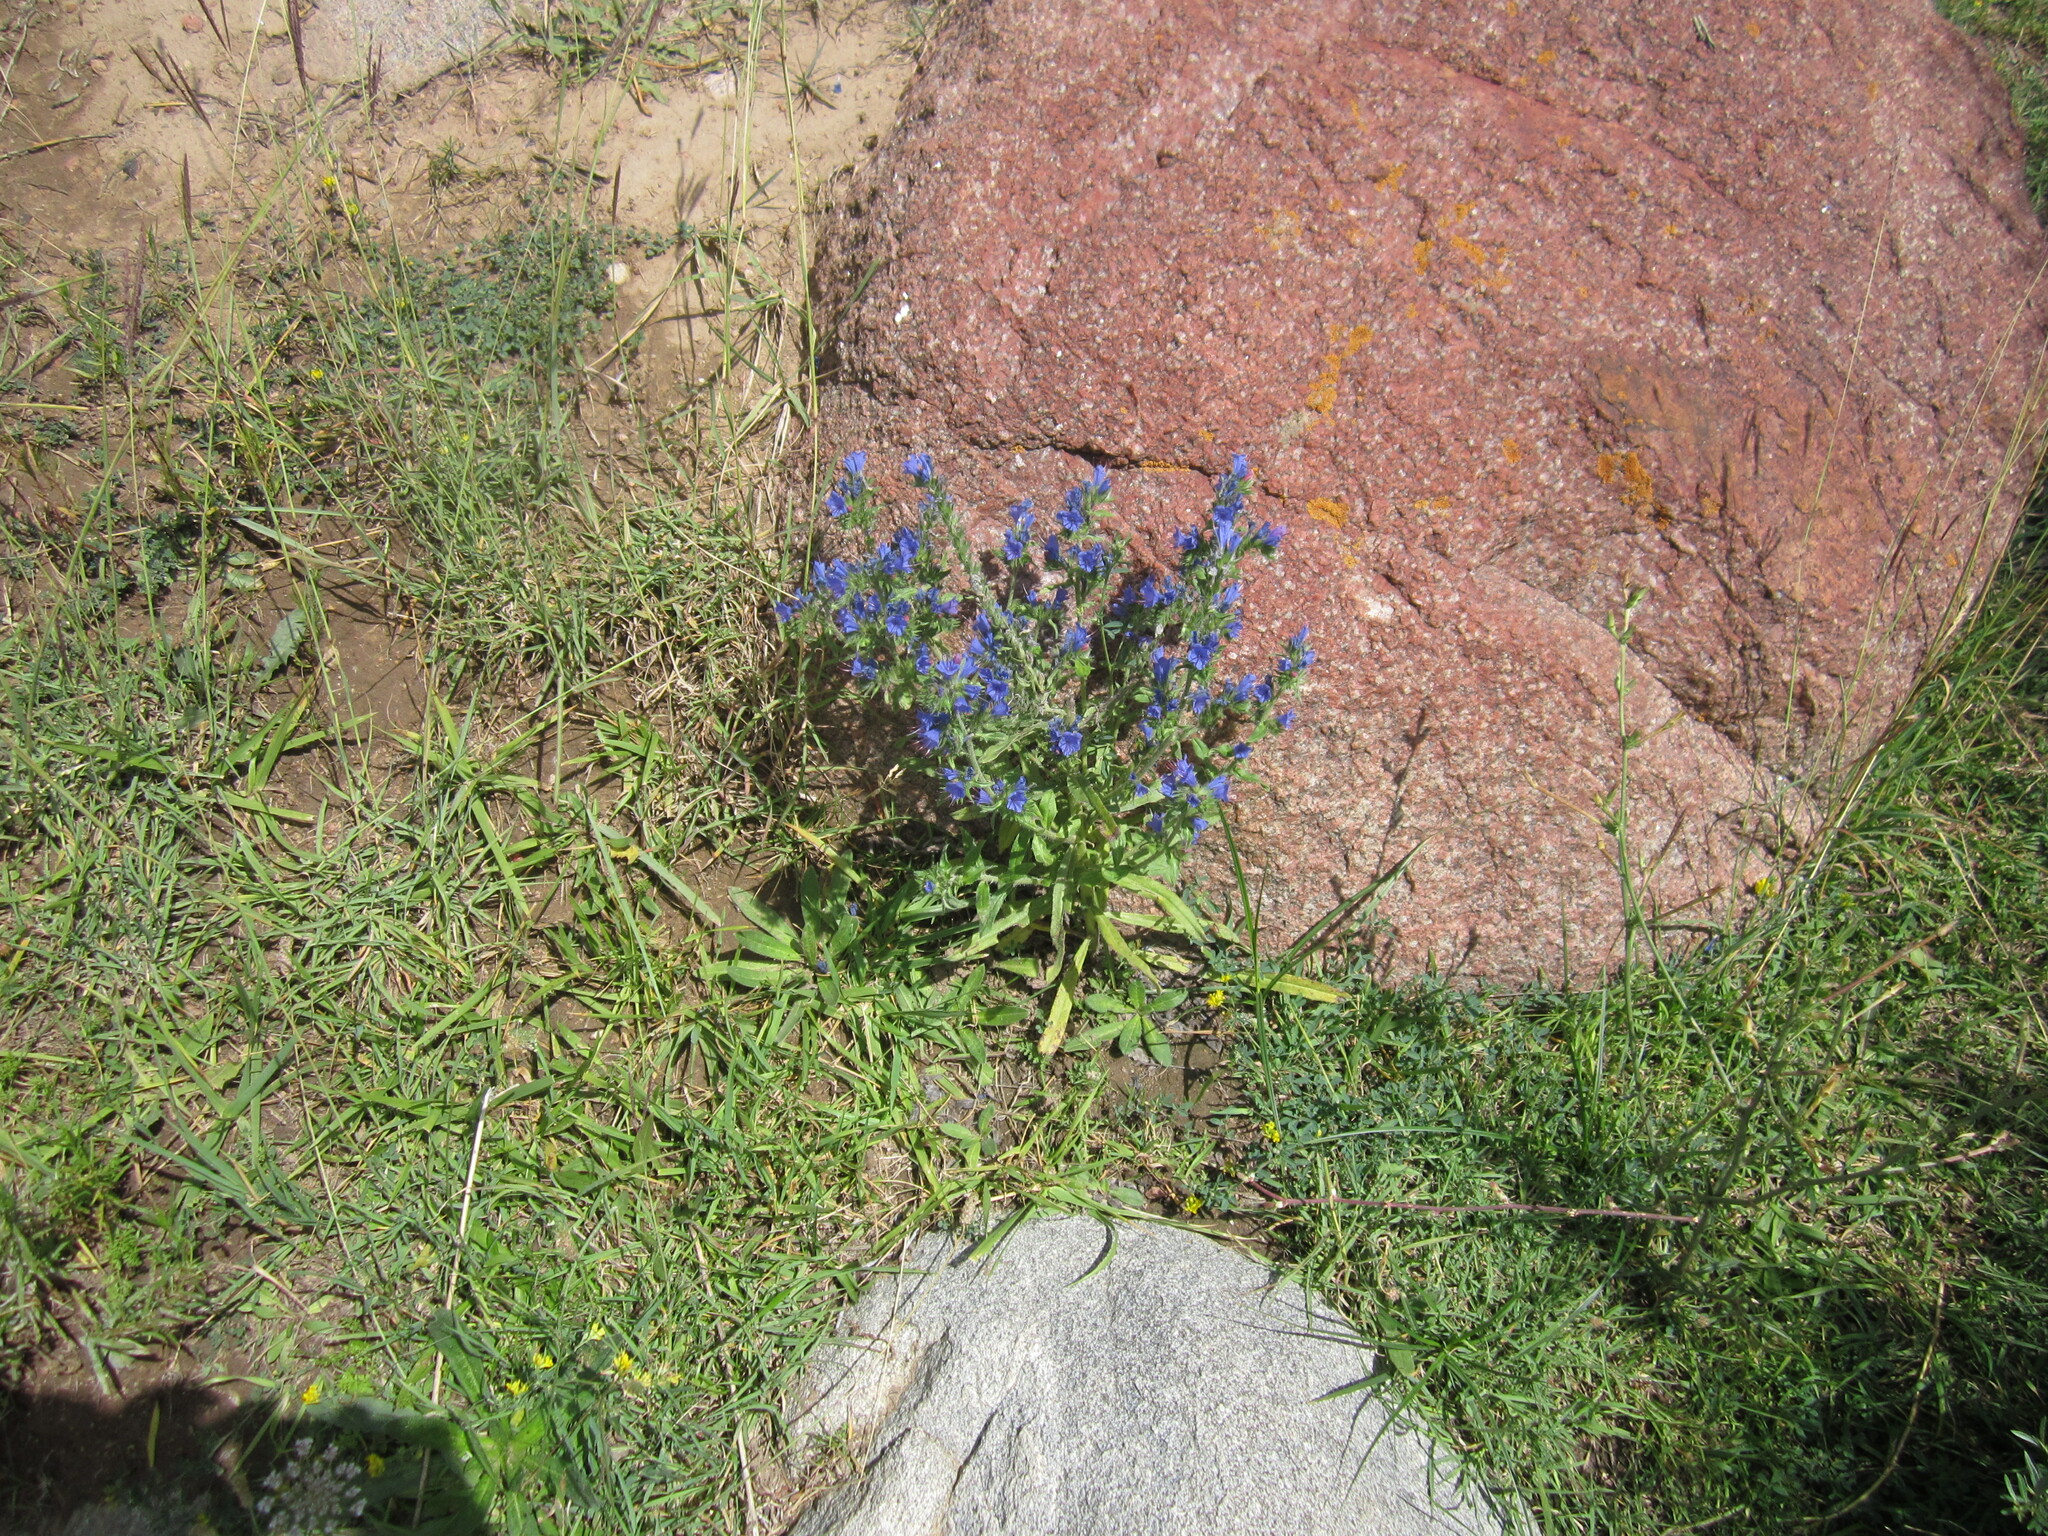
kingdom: Plantae
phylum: Tracheophyta
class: Magnoliopsida
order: Boraginales
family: Boraginaceae
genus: Echium
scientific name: Echium vulgare
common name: Common viper's bugloss
